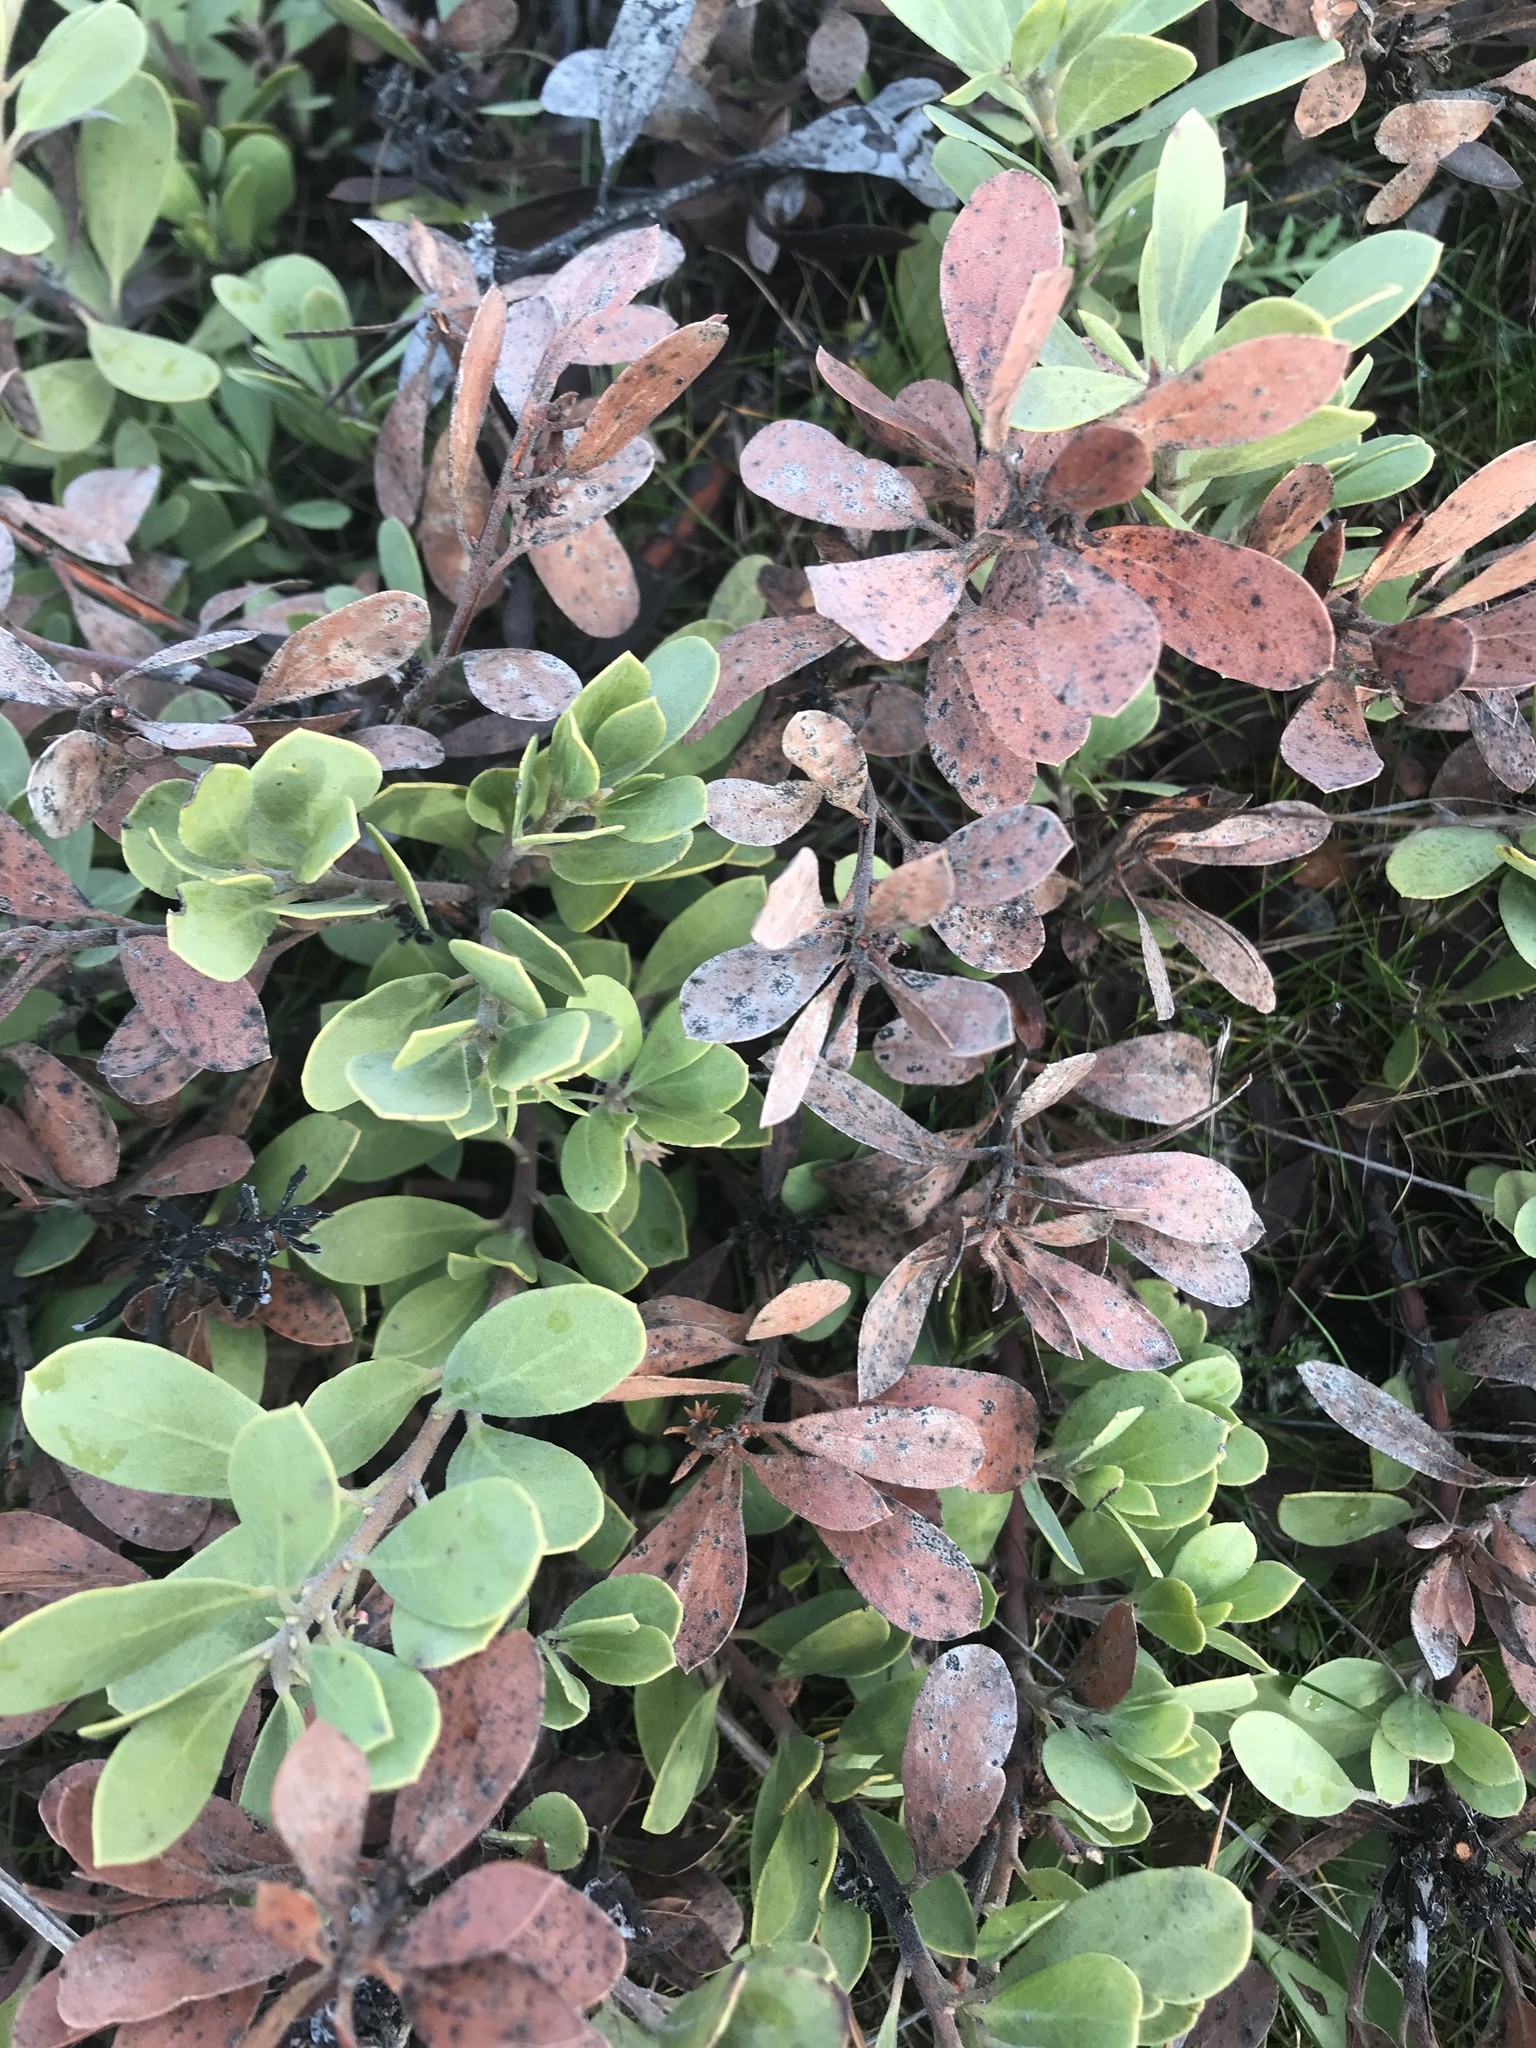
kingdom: Plantae
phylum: Tracheophyta
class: Magnoliopsida
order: Ericales
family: Ericaceae
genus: Arctostaphylos
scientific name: Arctostaphylos nevadensis
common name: Pinemat manzanita
